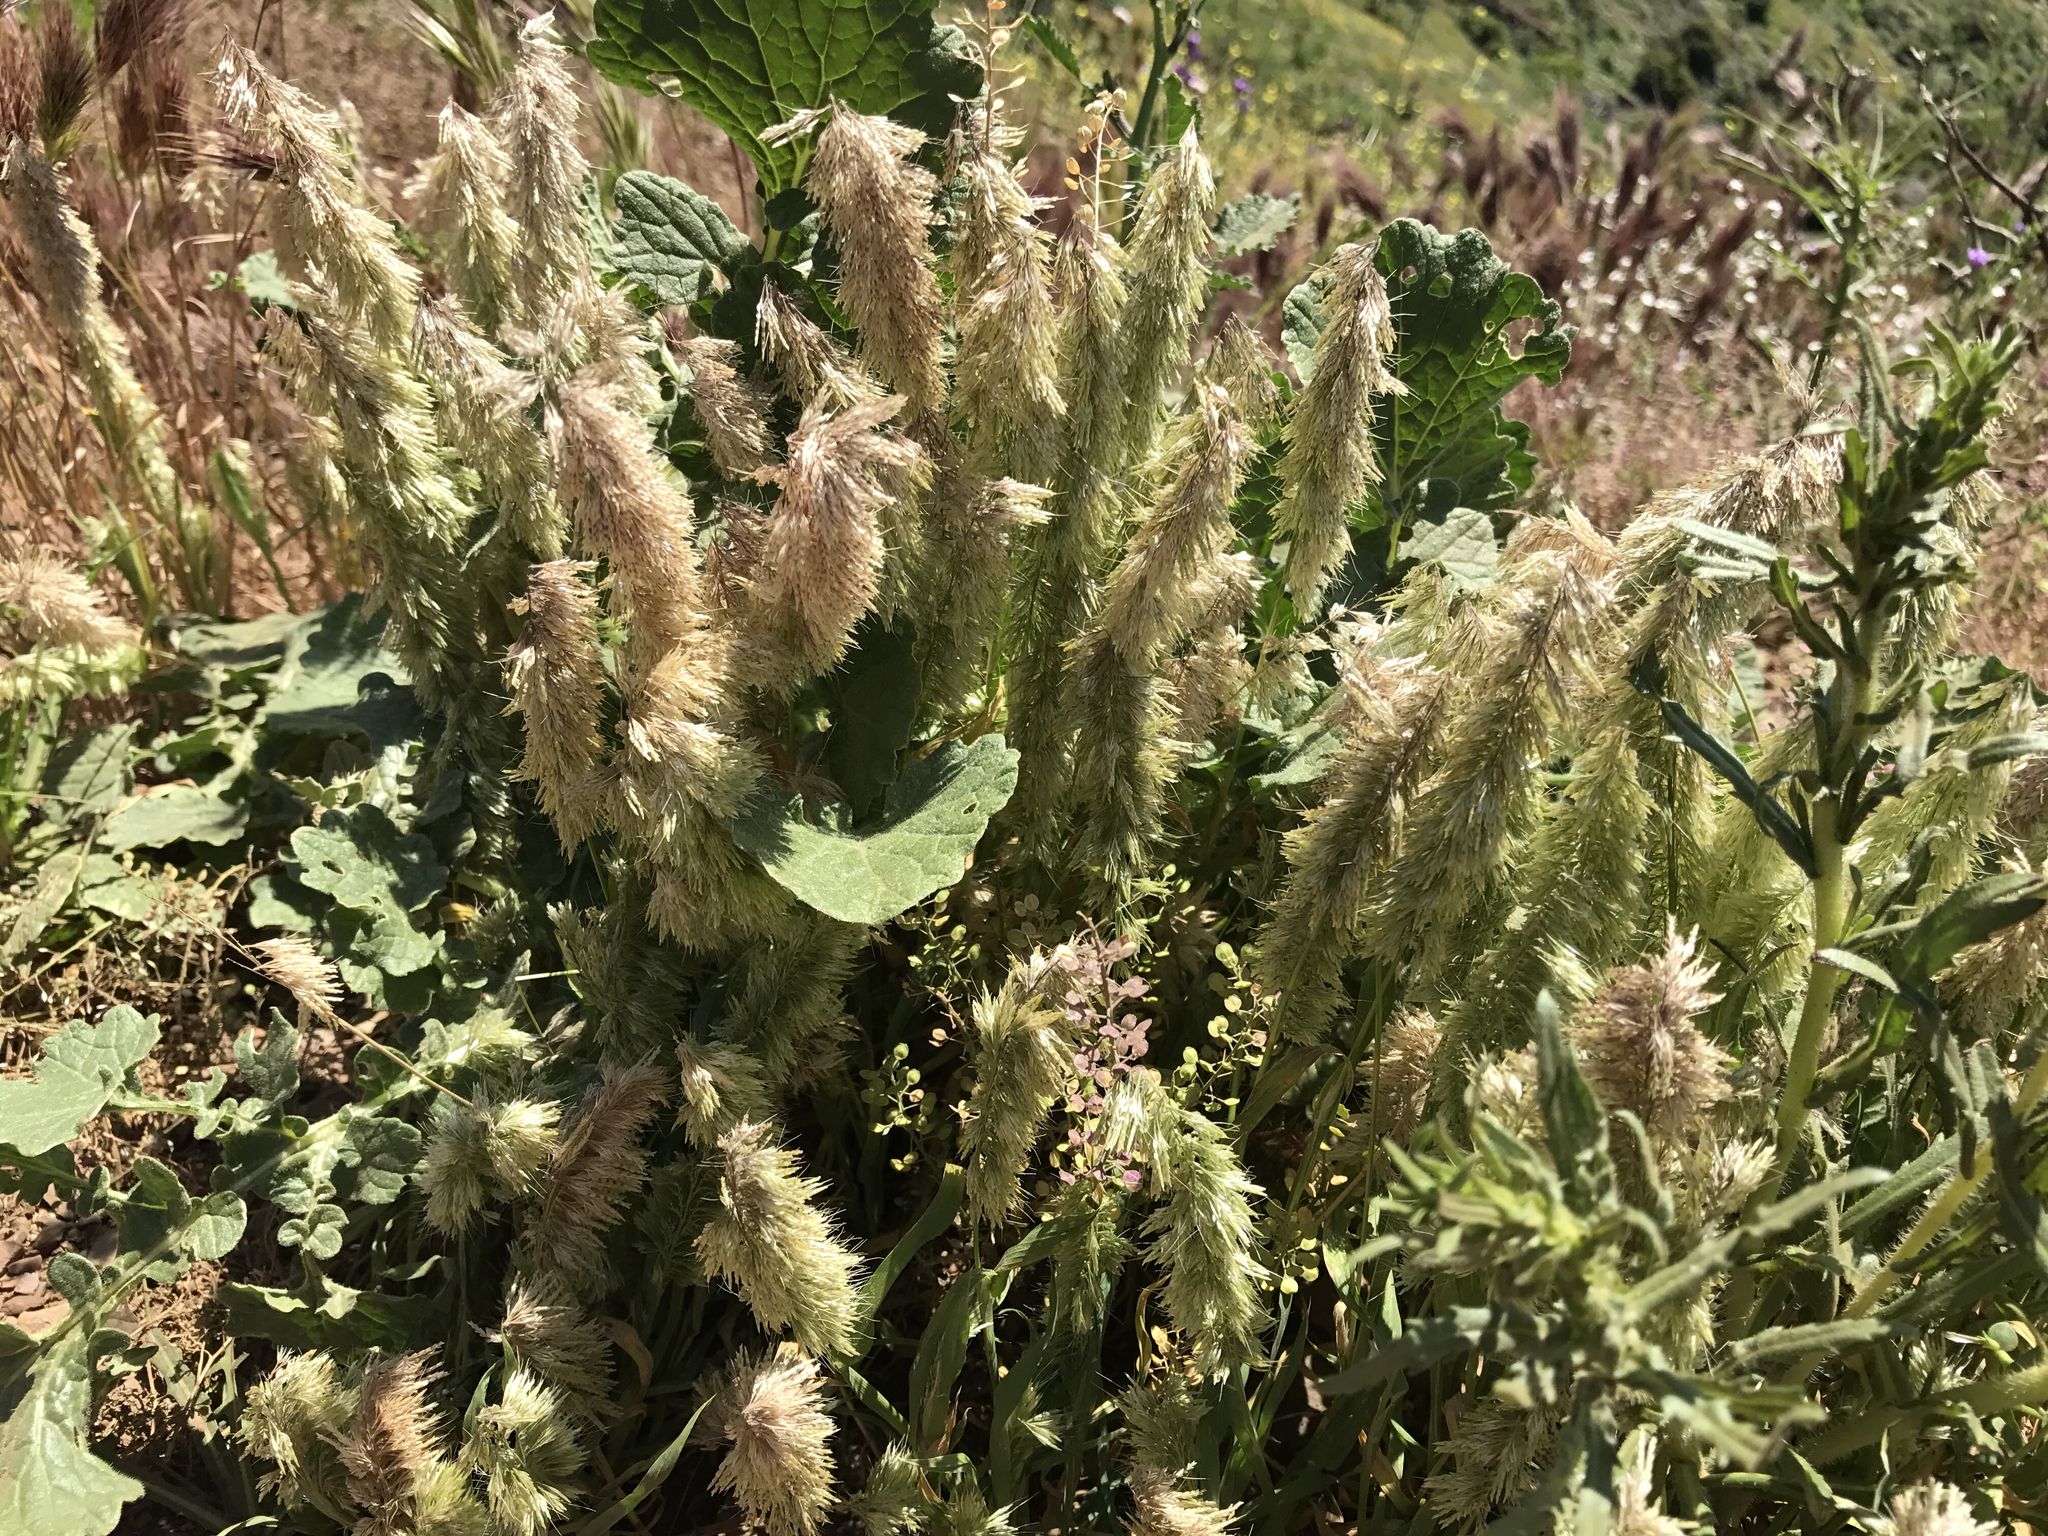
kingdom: Plantae
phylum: Tracheophyta
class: Liliopsida
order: Poales
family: Poaceae
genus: Lamarckia
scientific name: Lamarckia aurea
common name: Golden dog's-tail
